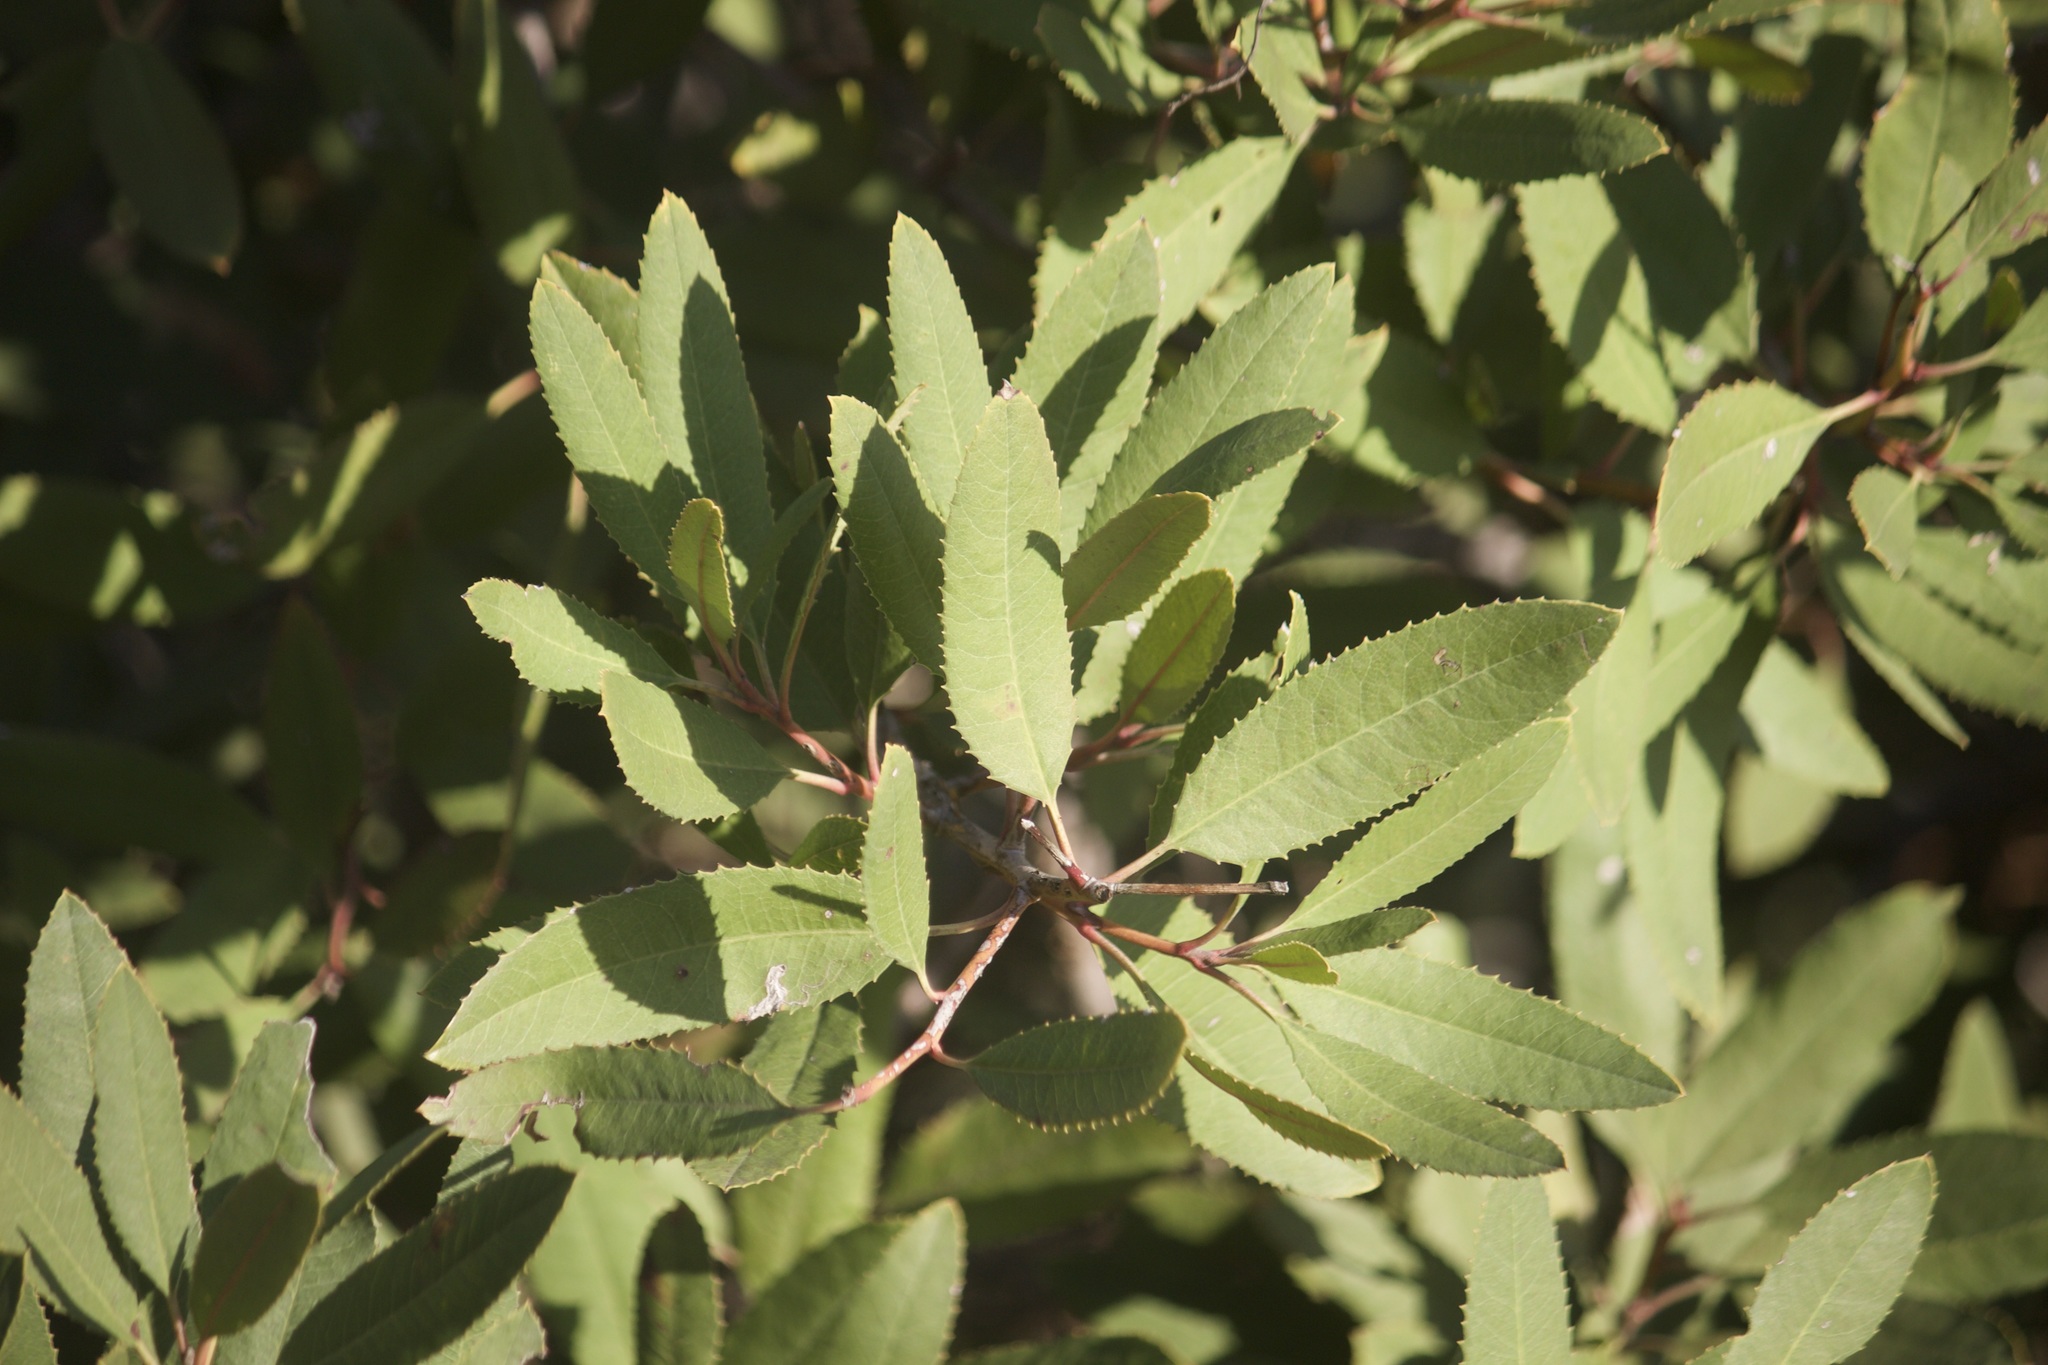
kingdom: Plantae
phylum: Tracheophyta
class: Magnoliopsida
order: Rosales
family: Rosaceae
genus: Heteromeles
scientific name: Heteromeles arbutifolia
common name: California-holly
